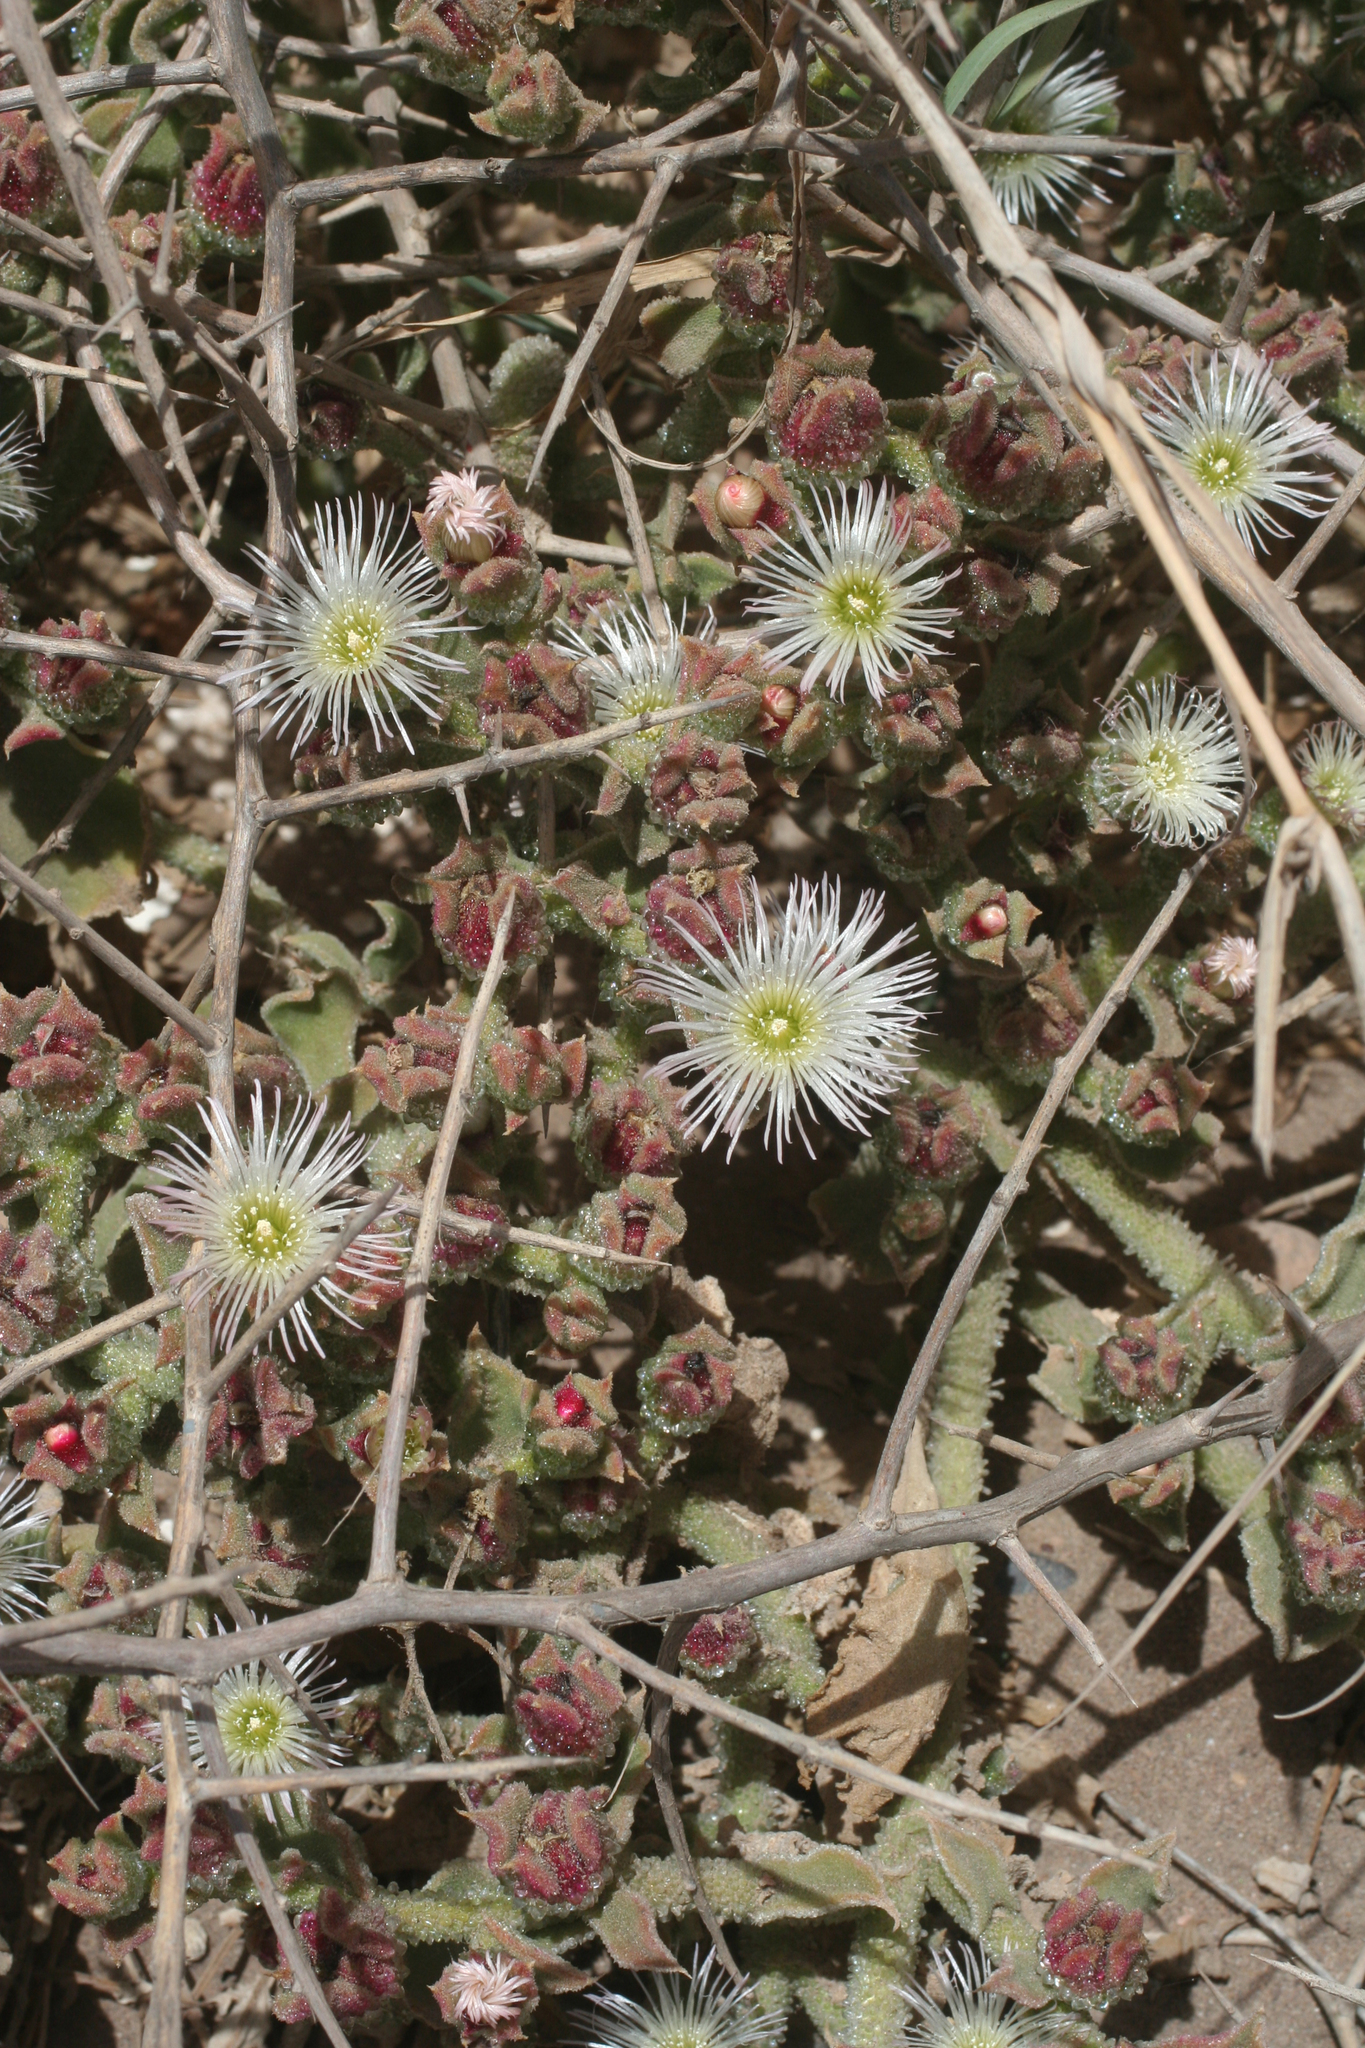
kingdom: Plantae
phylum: Tracheophyta
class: Magnoliopsida
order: Caryophyllales
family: Aizoaceae
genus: Mesembryanthemum
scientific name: Mesembryanthemum crystallinum
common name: Common iceplant
